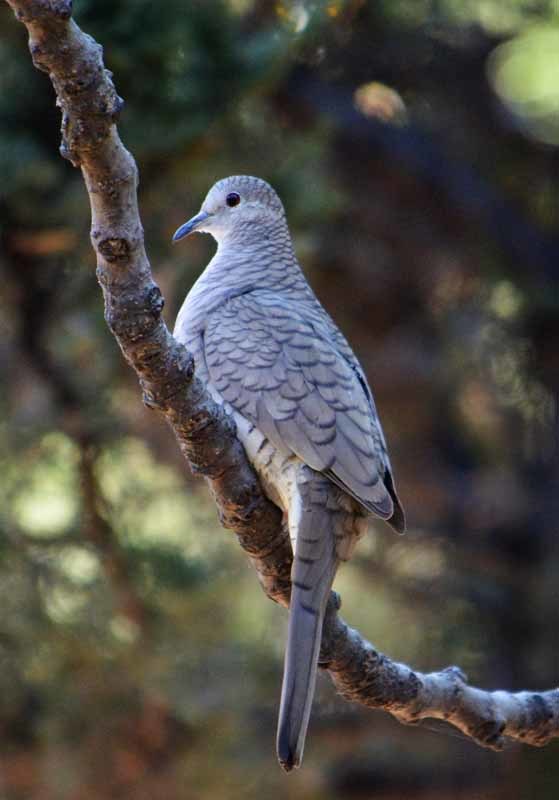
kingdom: Animalia
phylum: Chordata
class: Aves
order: Columbiformes
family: Columbidae
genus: Columbina
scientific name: Columbina inca
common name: Inca dove
